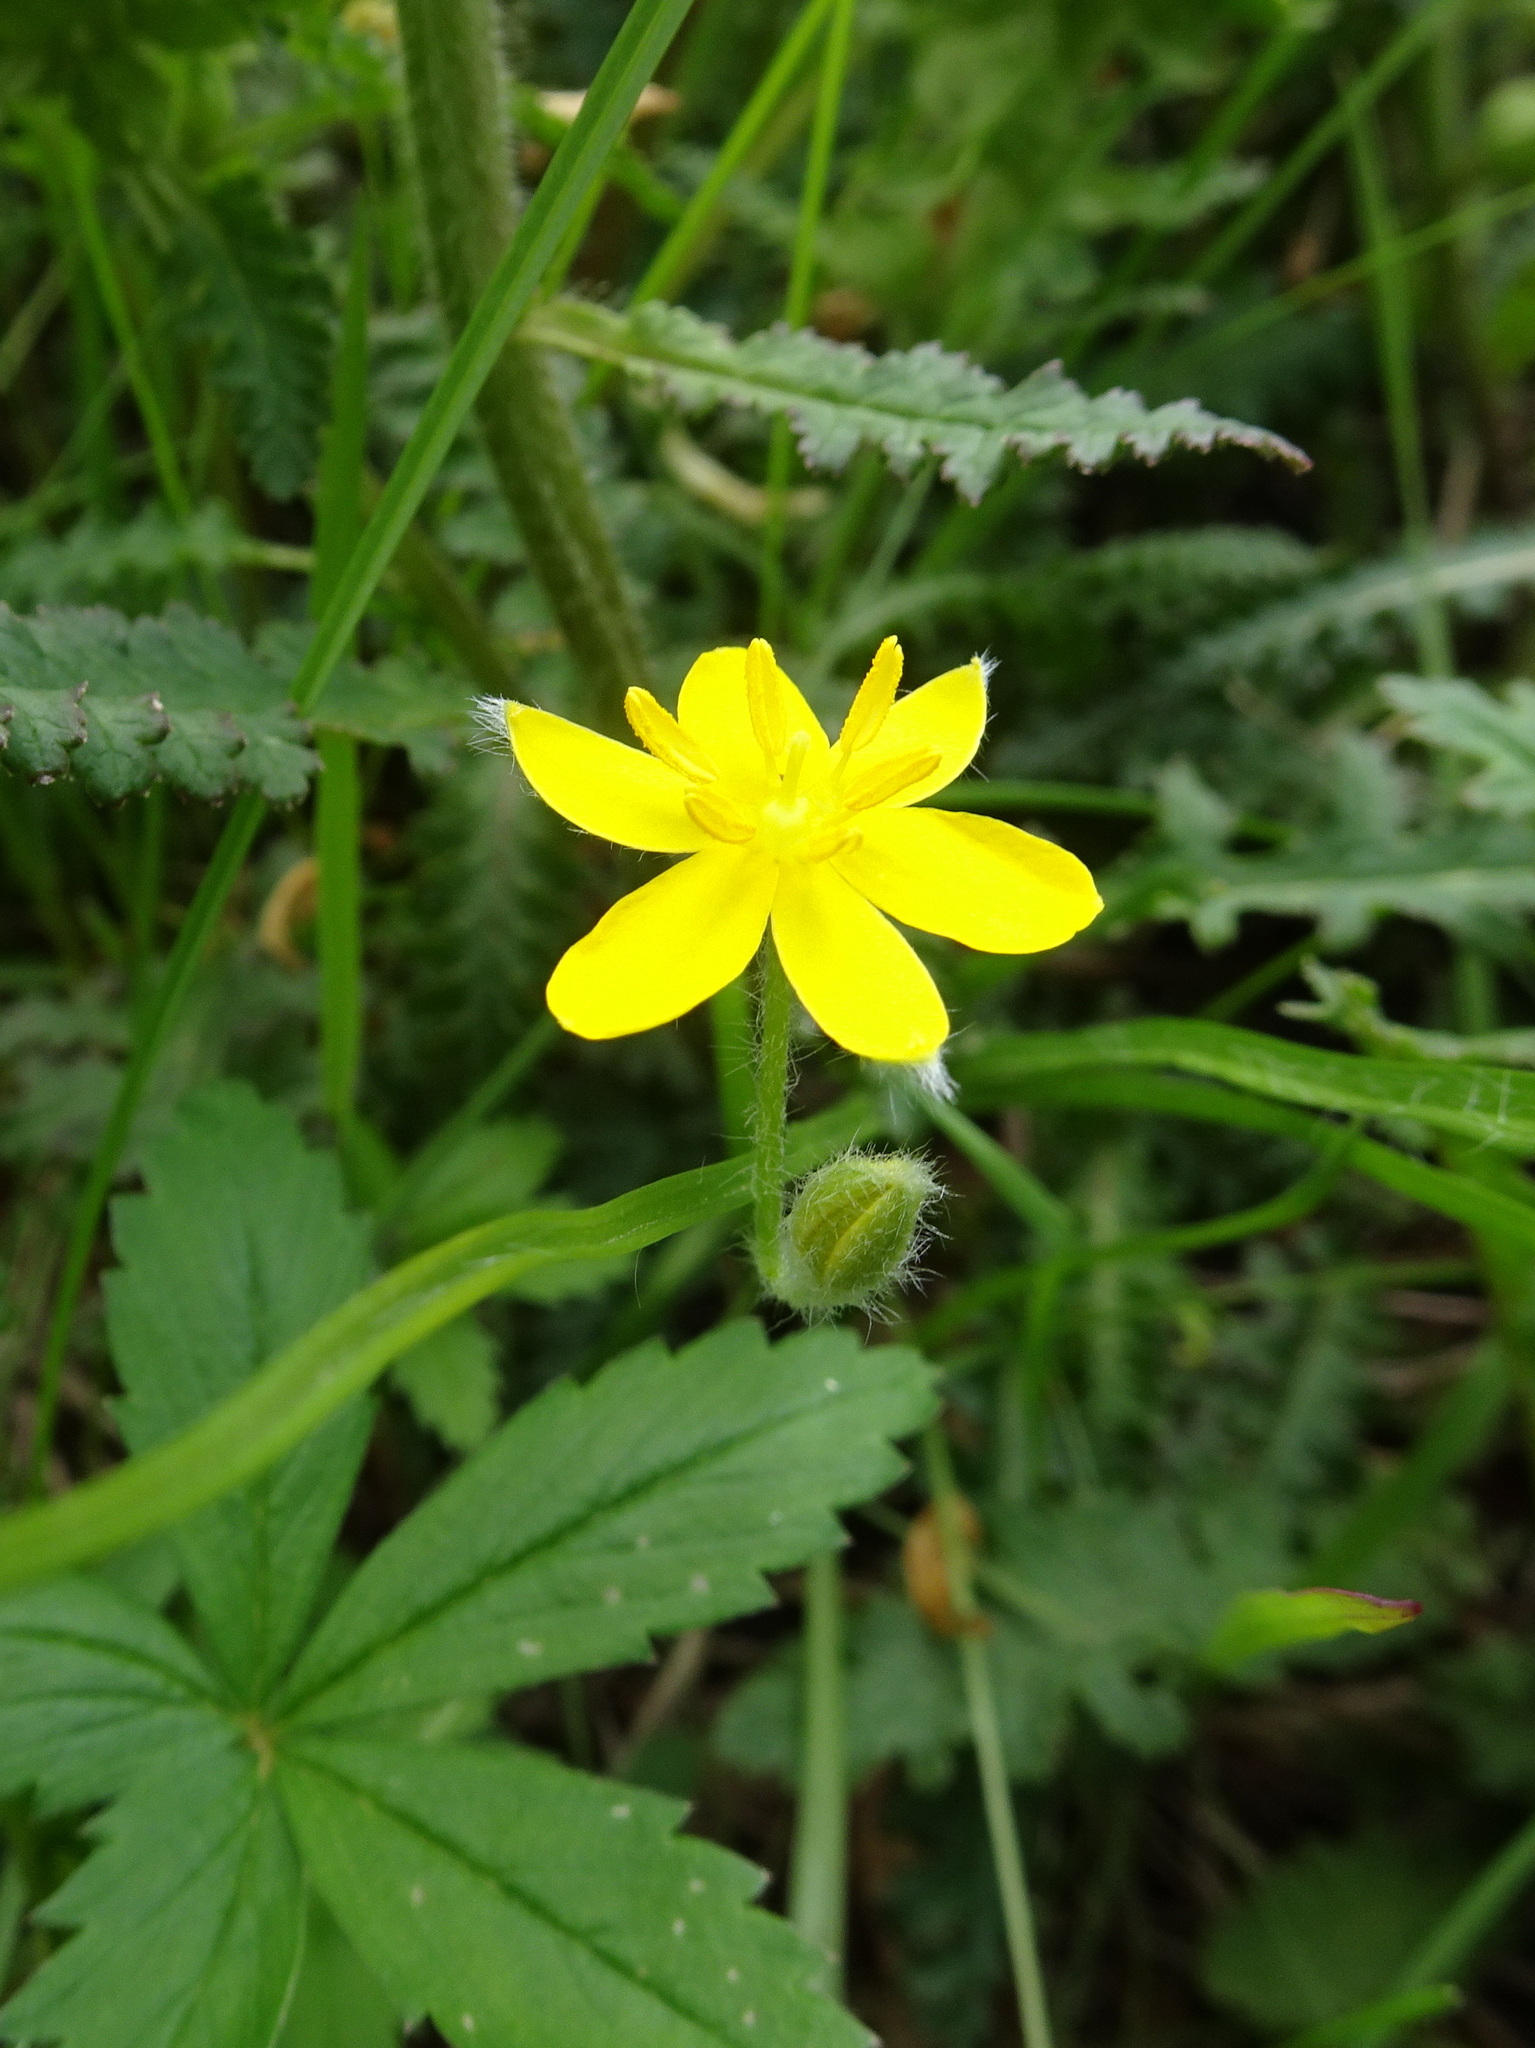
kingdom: Plantae
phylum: Tracheophyta
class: Liliopsida
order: Asparagales
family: Hypoxidaceae
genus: Hypoxis
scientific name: Hypoxis hirsuta
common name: Common goldstar
